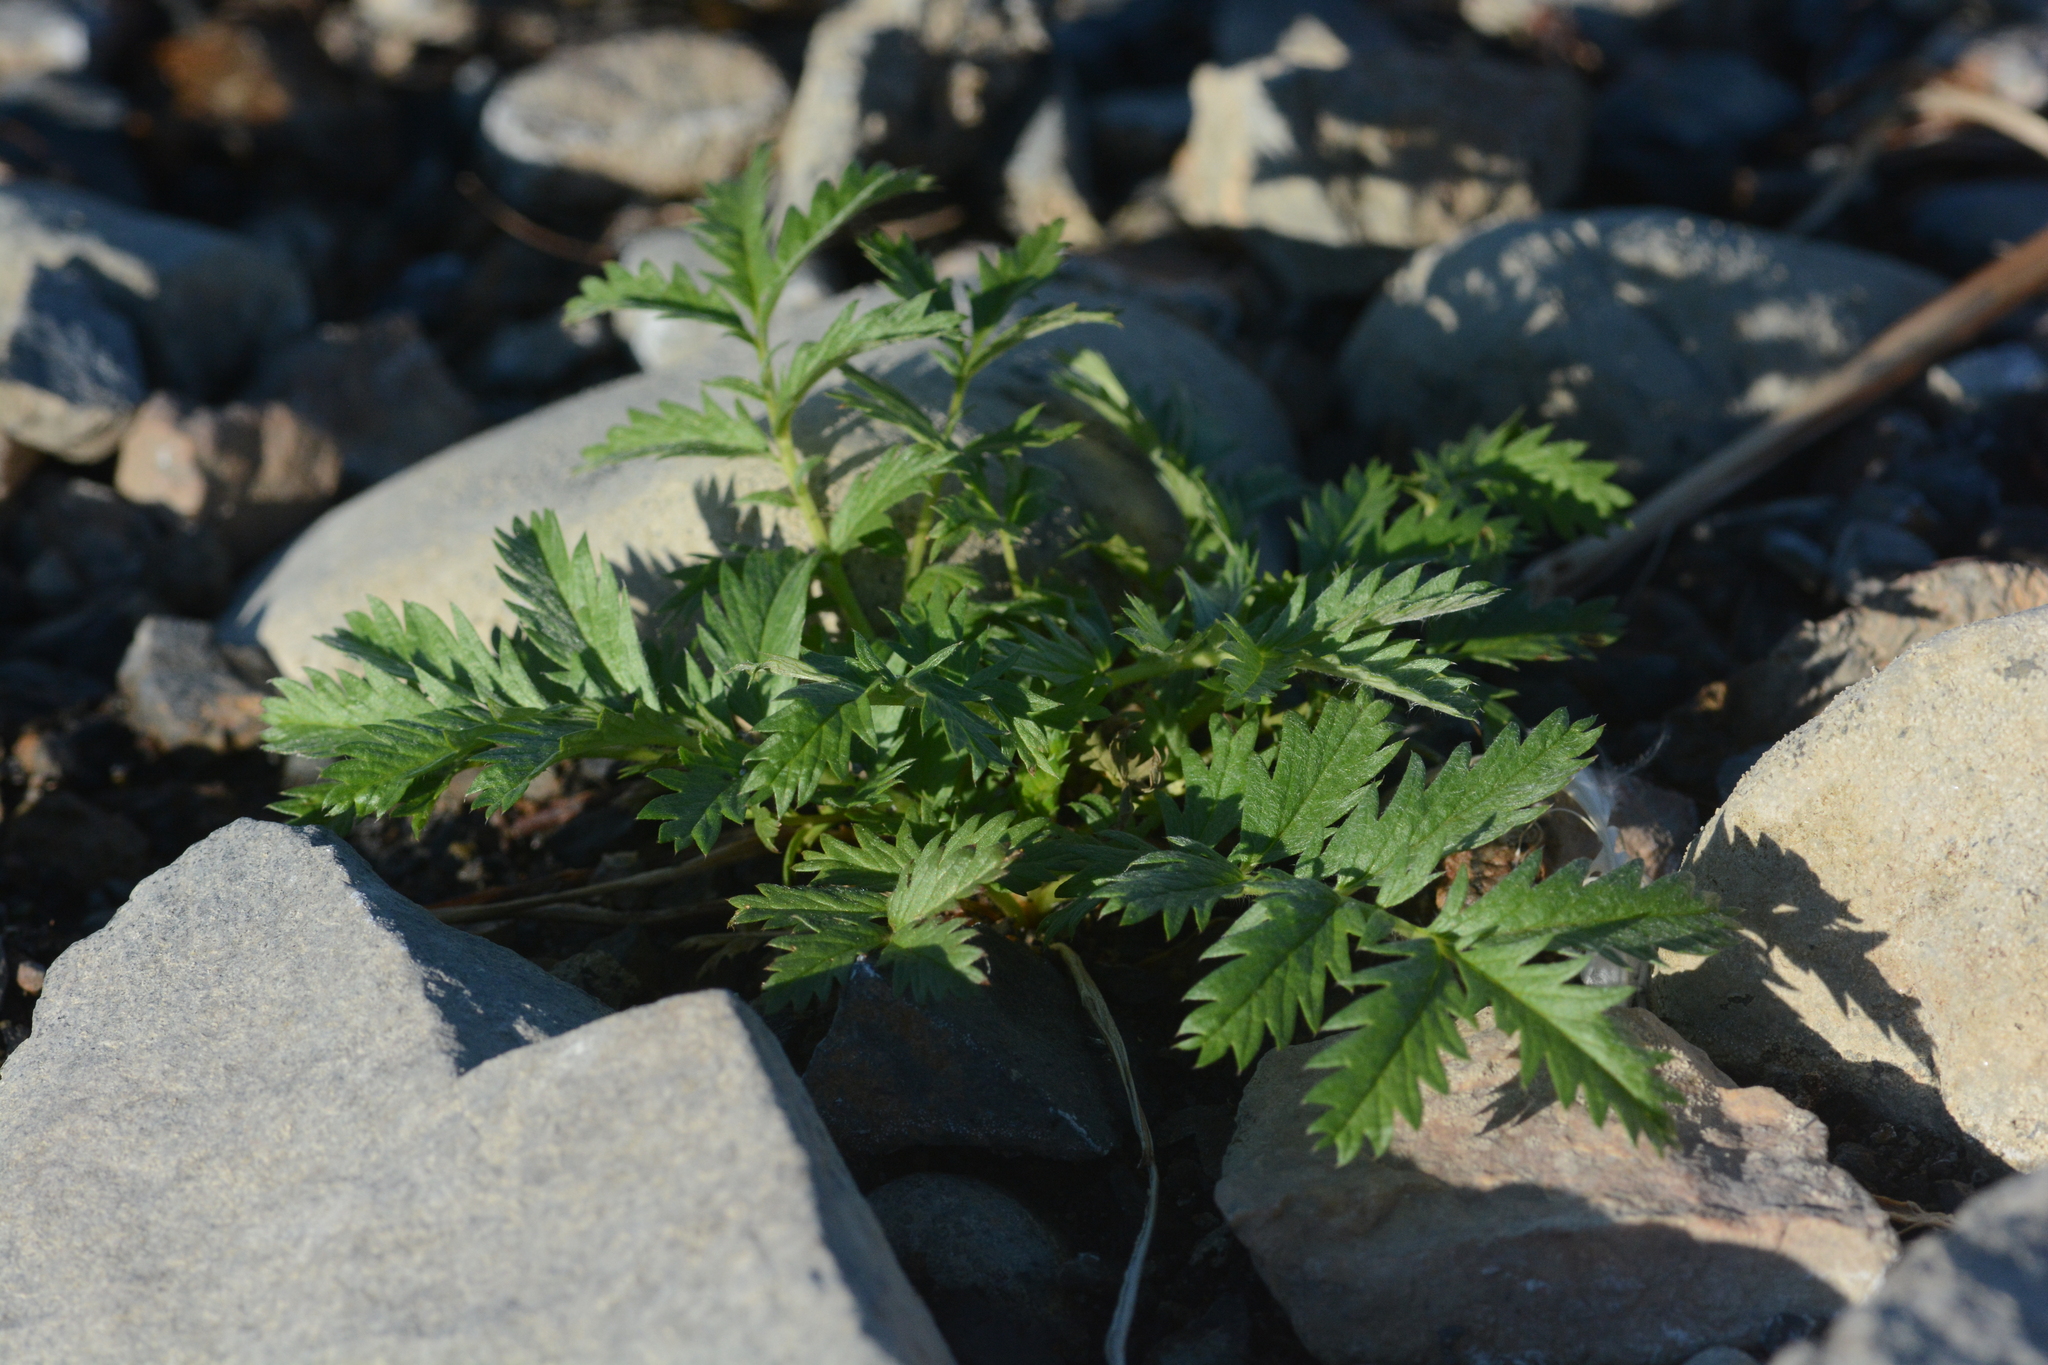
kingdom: Plantae
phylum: Tracheophyta
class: Magnoliopsida
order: Rosales
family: Rosaceae
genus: Argentina
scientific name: Argentina anserina
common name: Common silverweed
